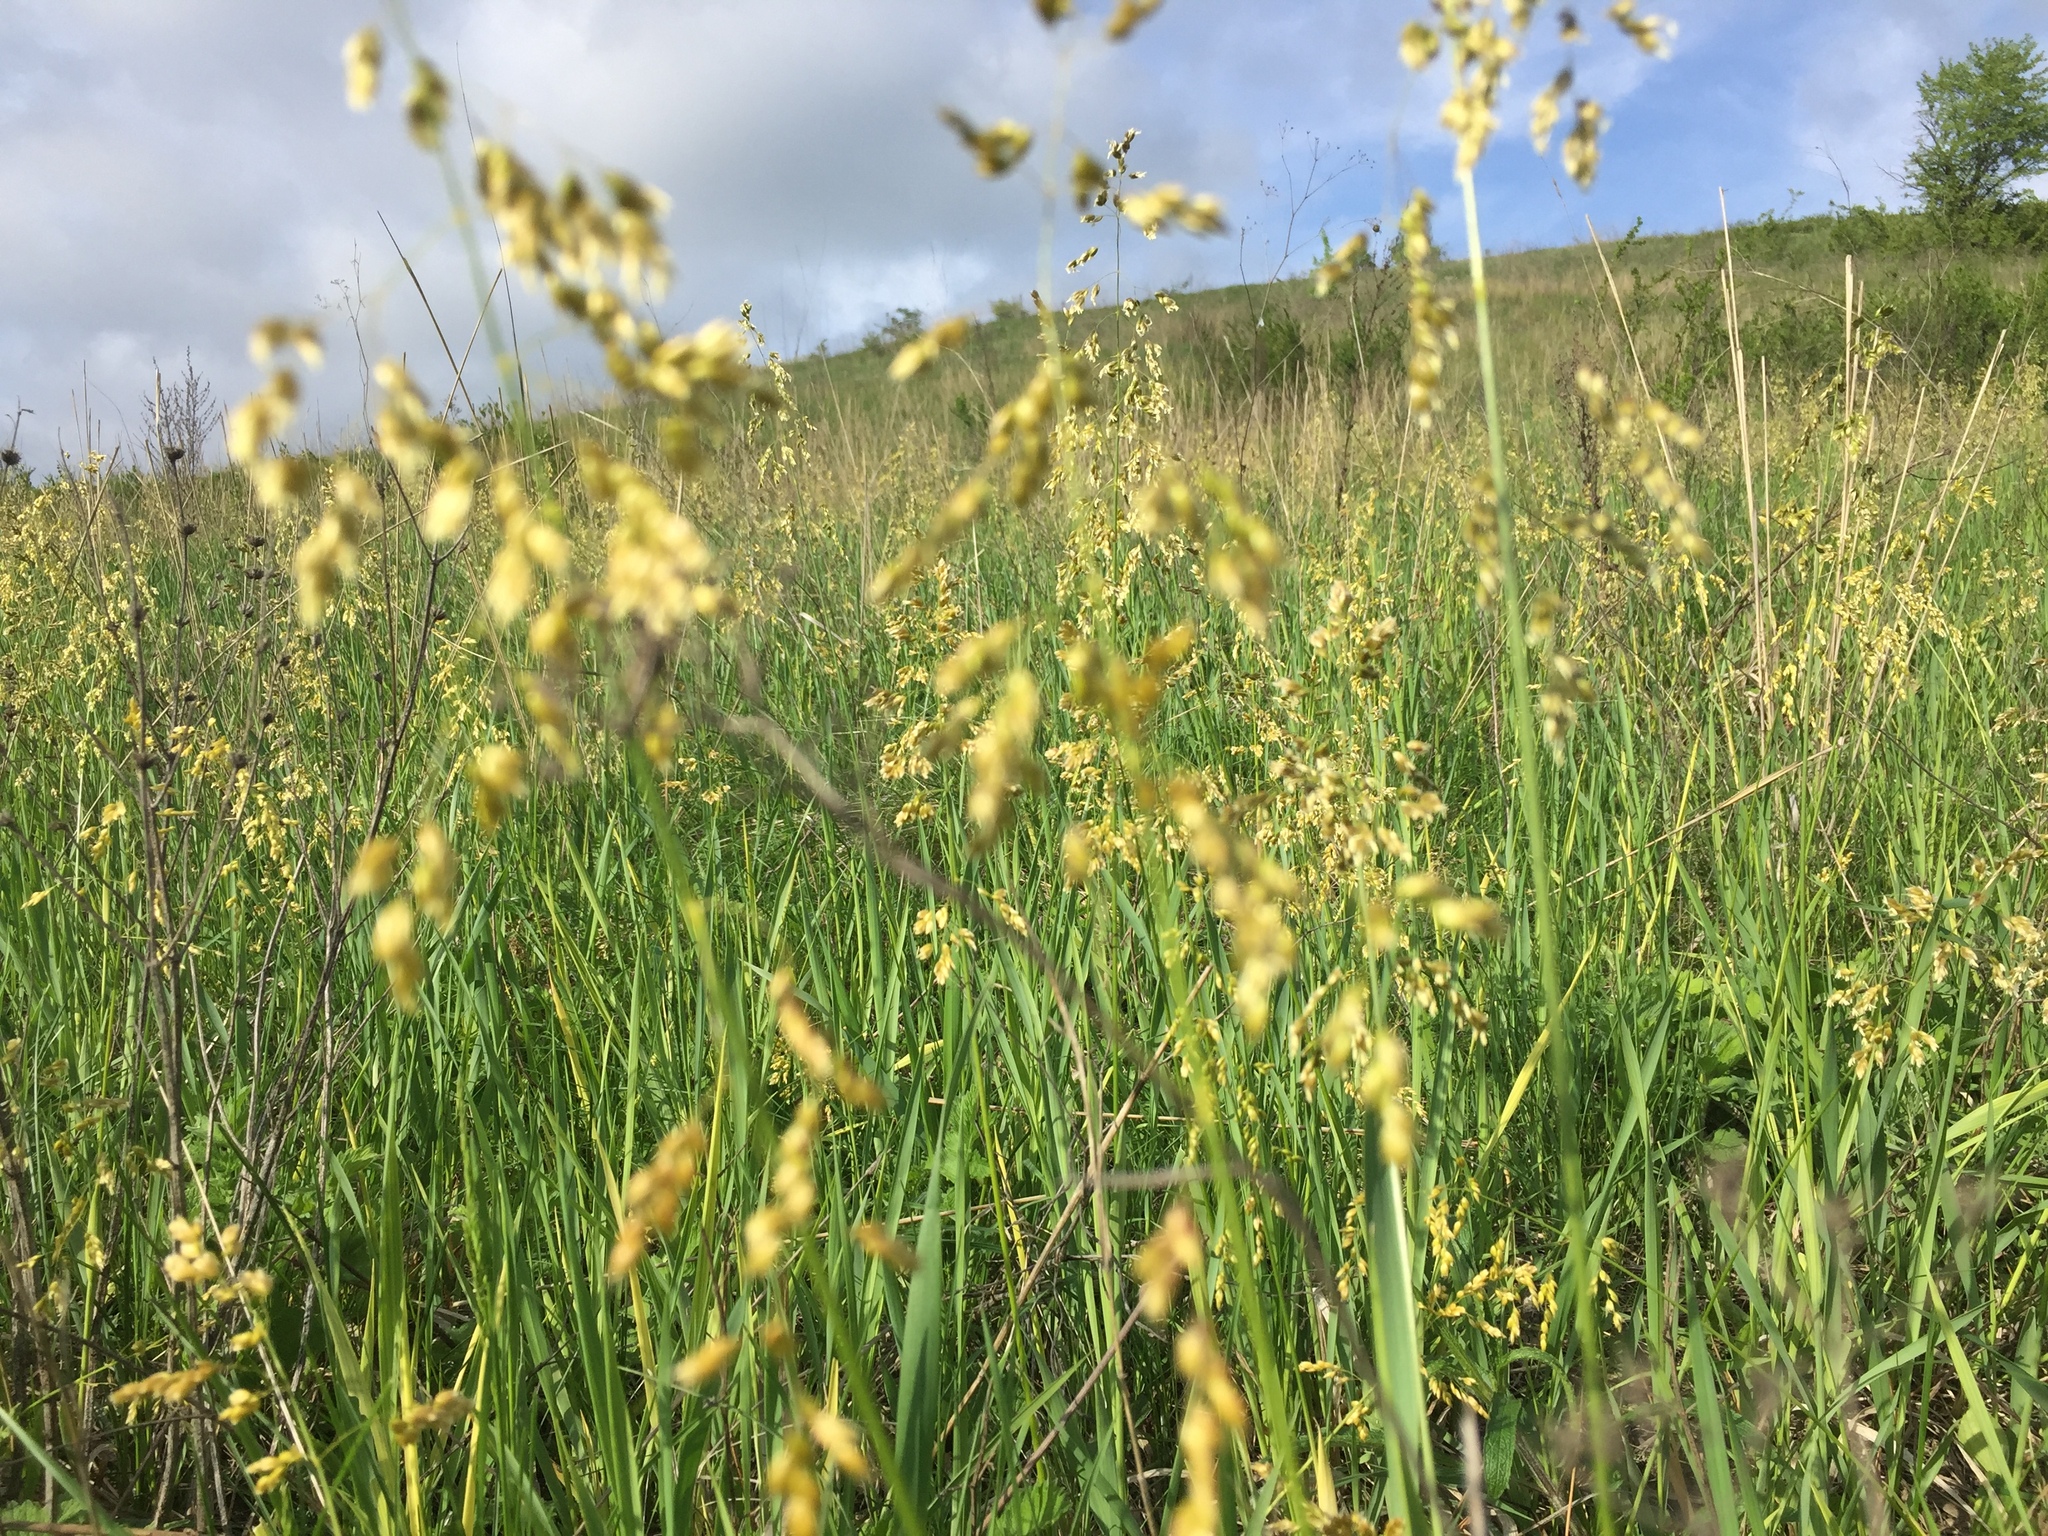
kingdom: Plantae
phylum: Tracheophyta
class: Liliopsida
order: Poales
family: Poaceae
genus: Anthoxanthum
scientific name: Anthoxanthum repens
